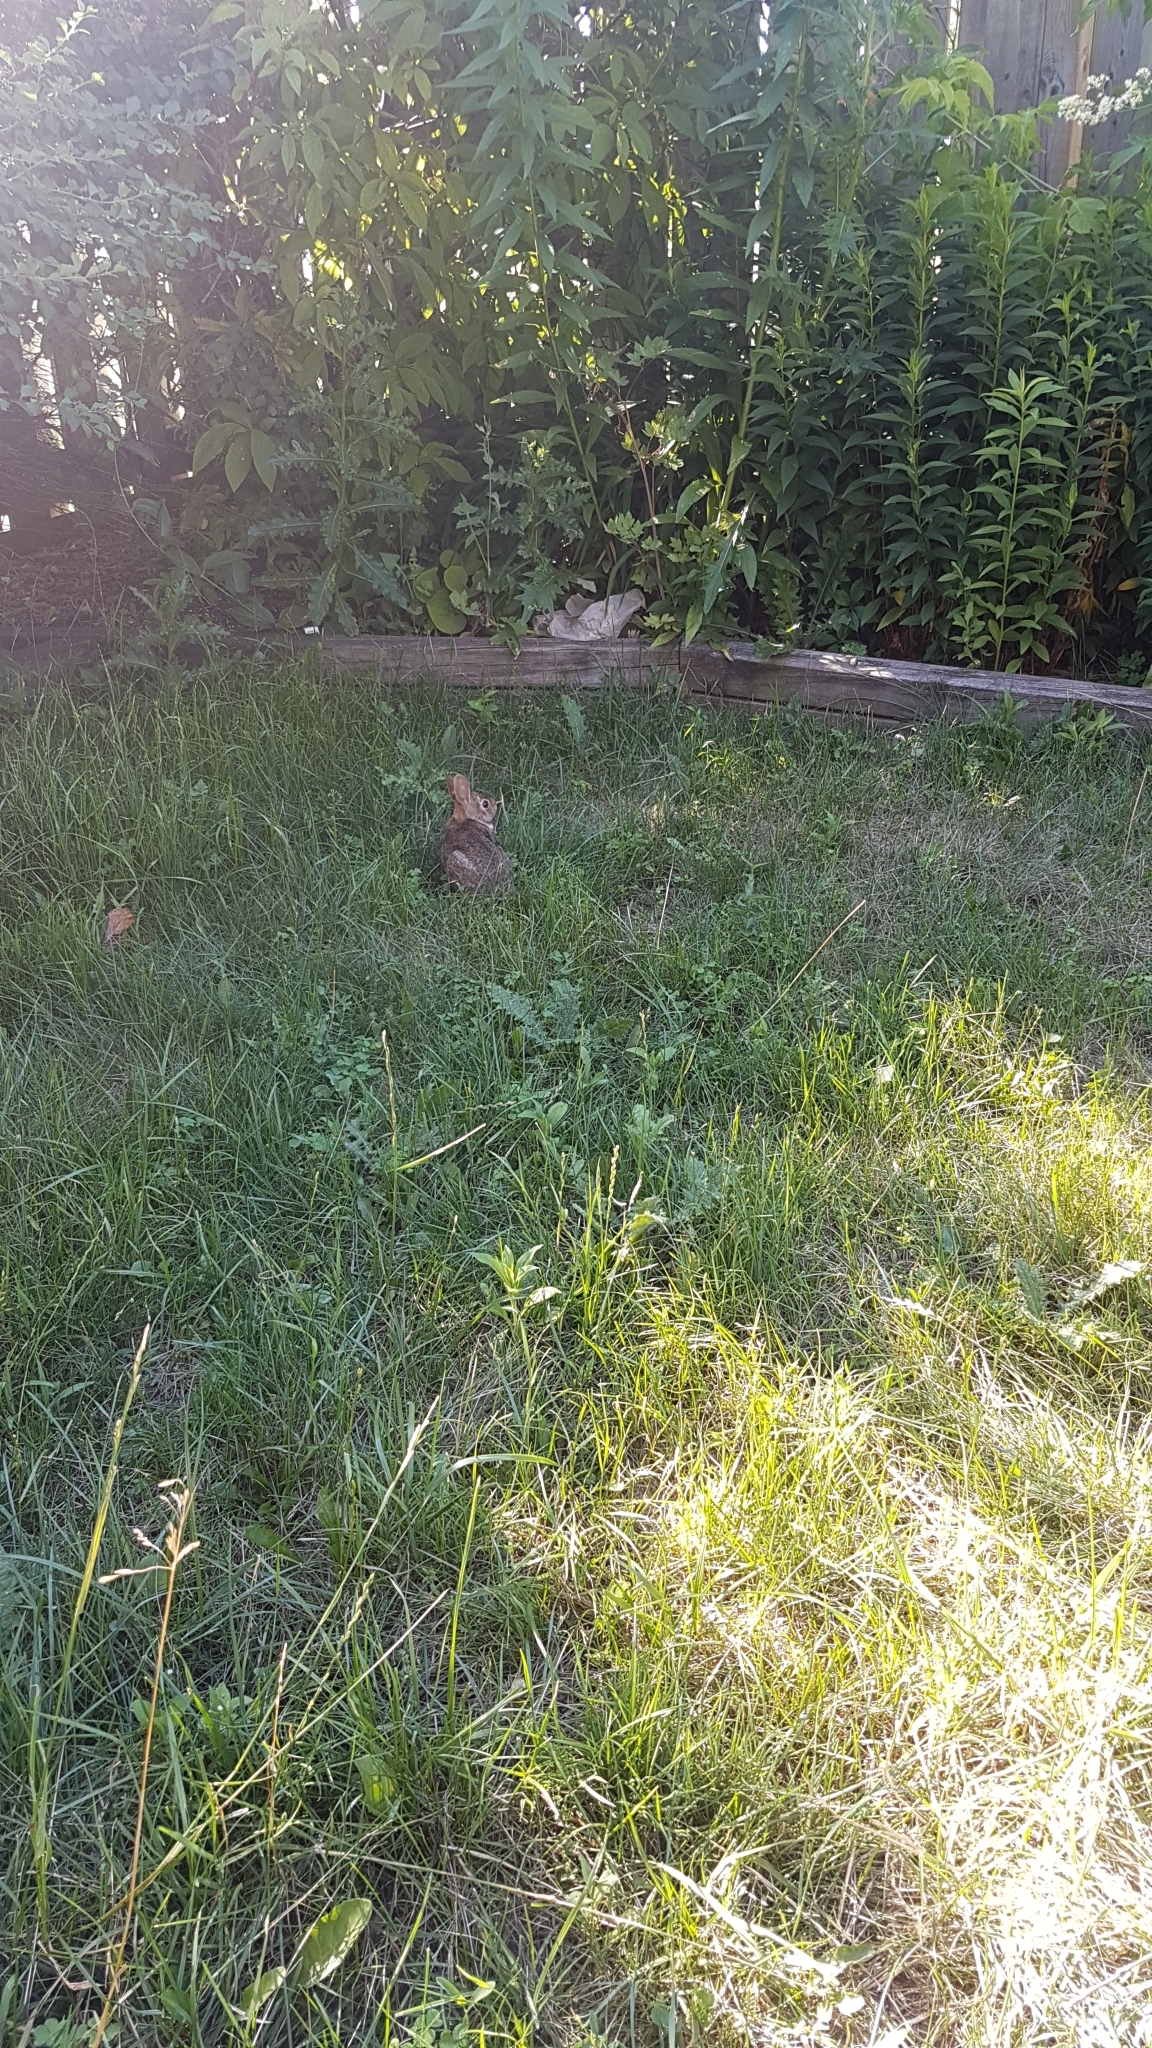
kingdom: Animalia
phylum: Chordata
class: Mammalia
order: Lagomorpha
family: Leporidae
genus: Sylvilagus
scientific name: Sylvilagus floridanus
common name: Eastern cottontail
